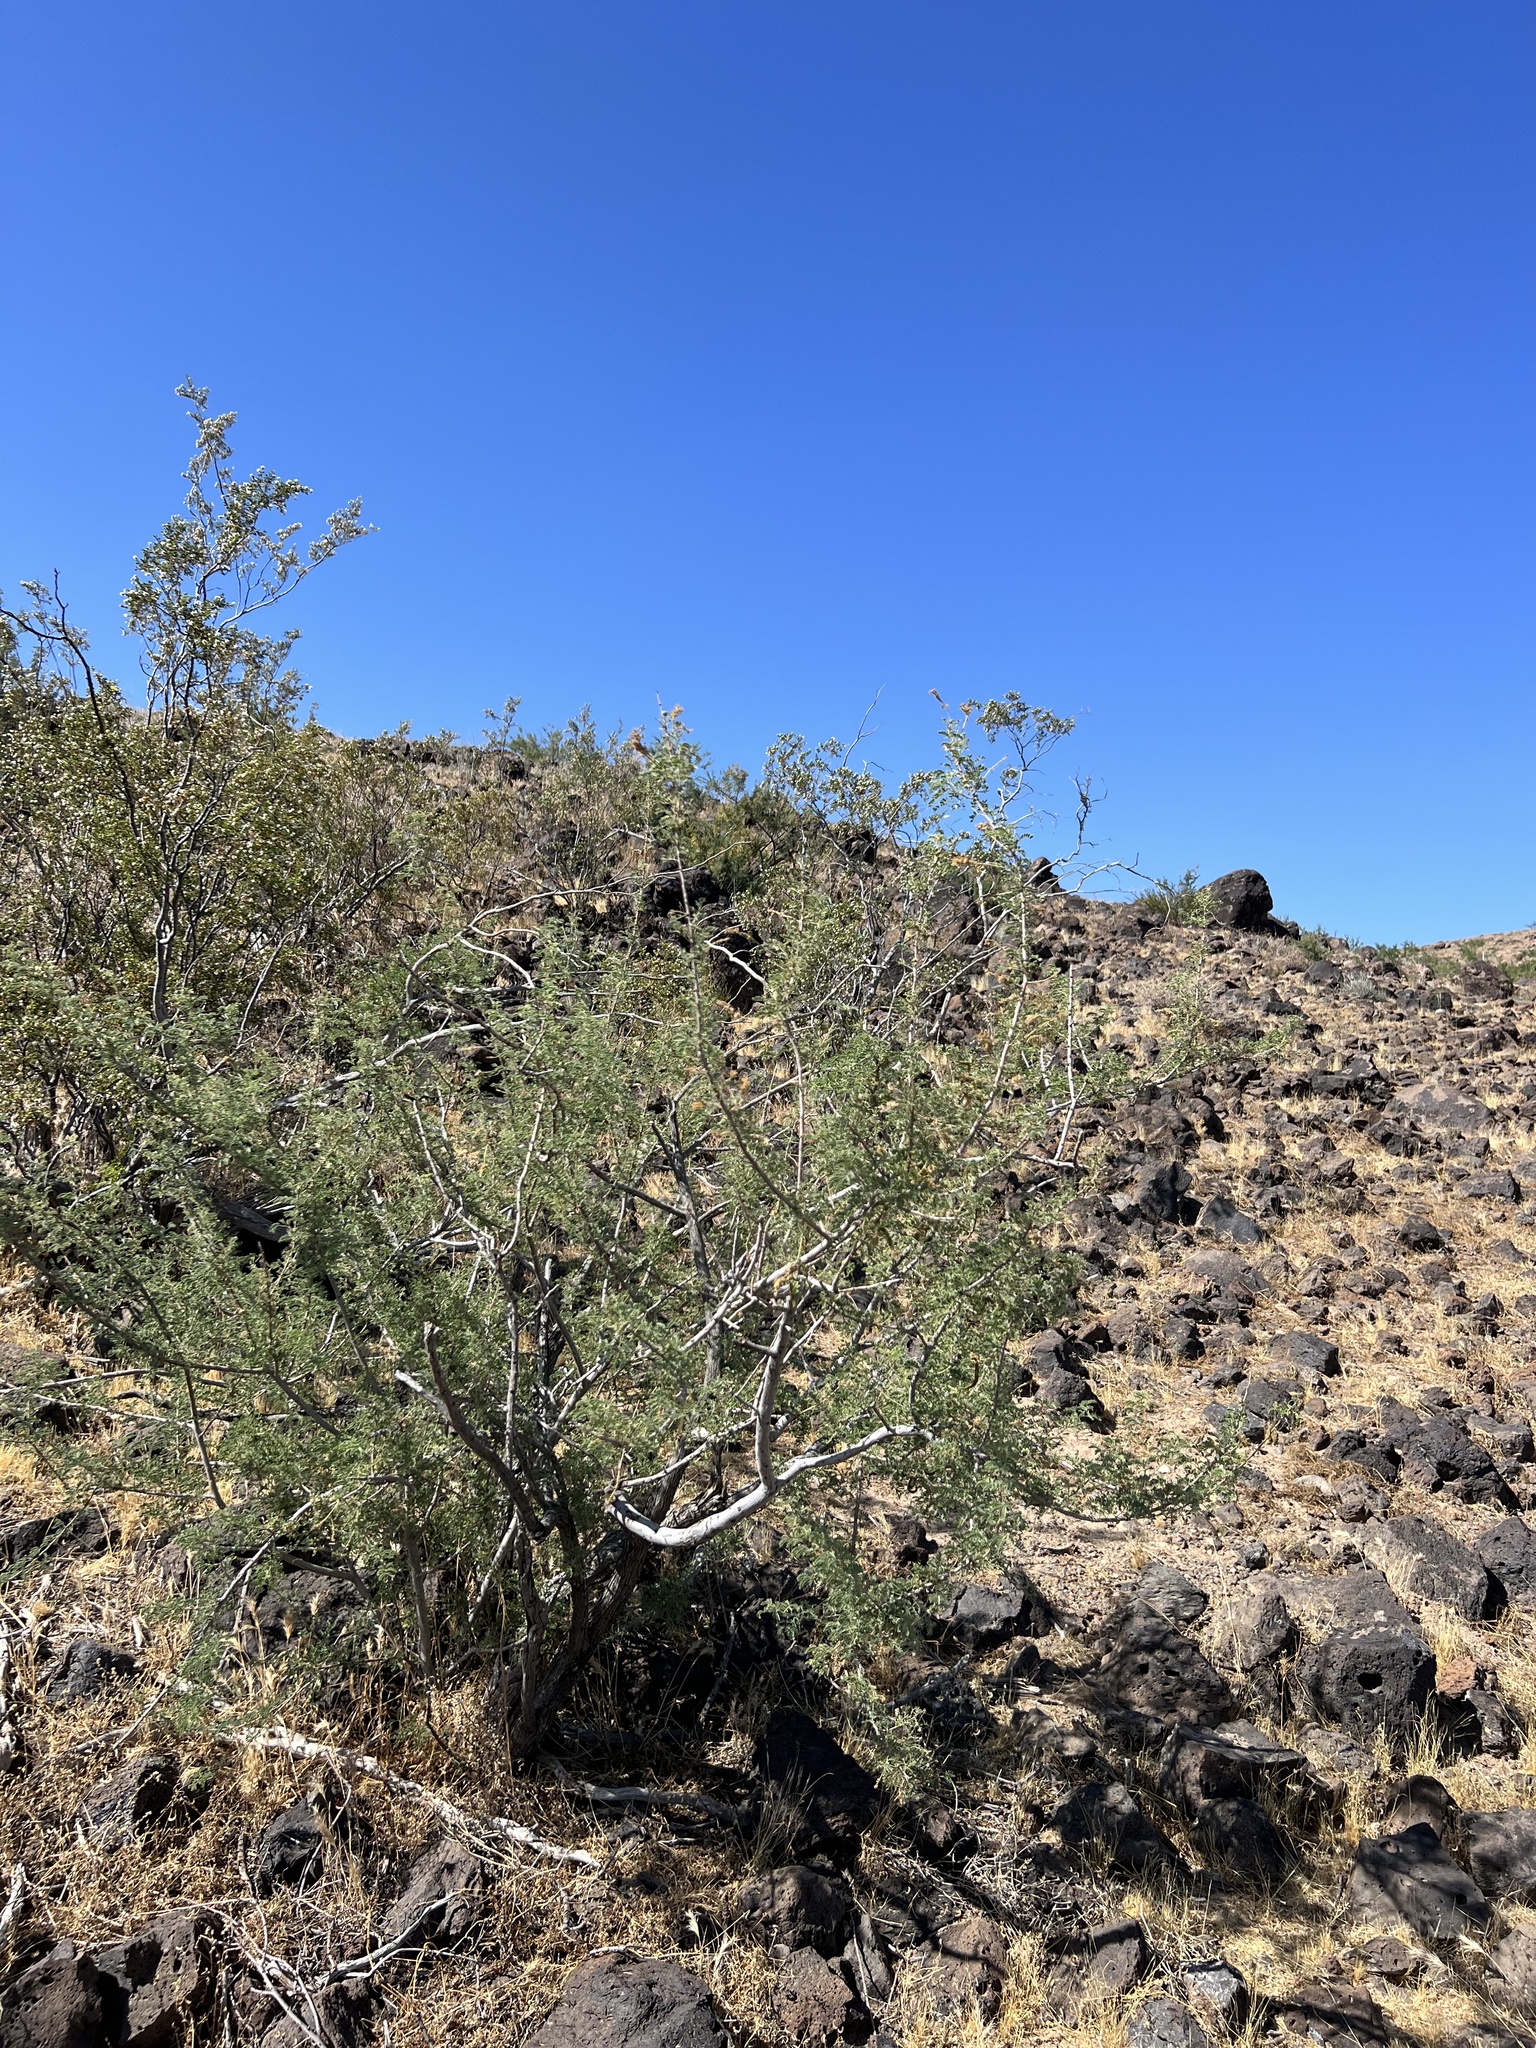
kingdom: Plantae
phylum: Tracheophyta
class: Magnoliopsida
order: Fabales
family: Fabaceae
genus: Senegalia
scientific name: Senegalia greggii
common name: Texas-mimosa
